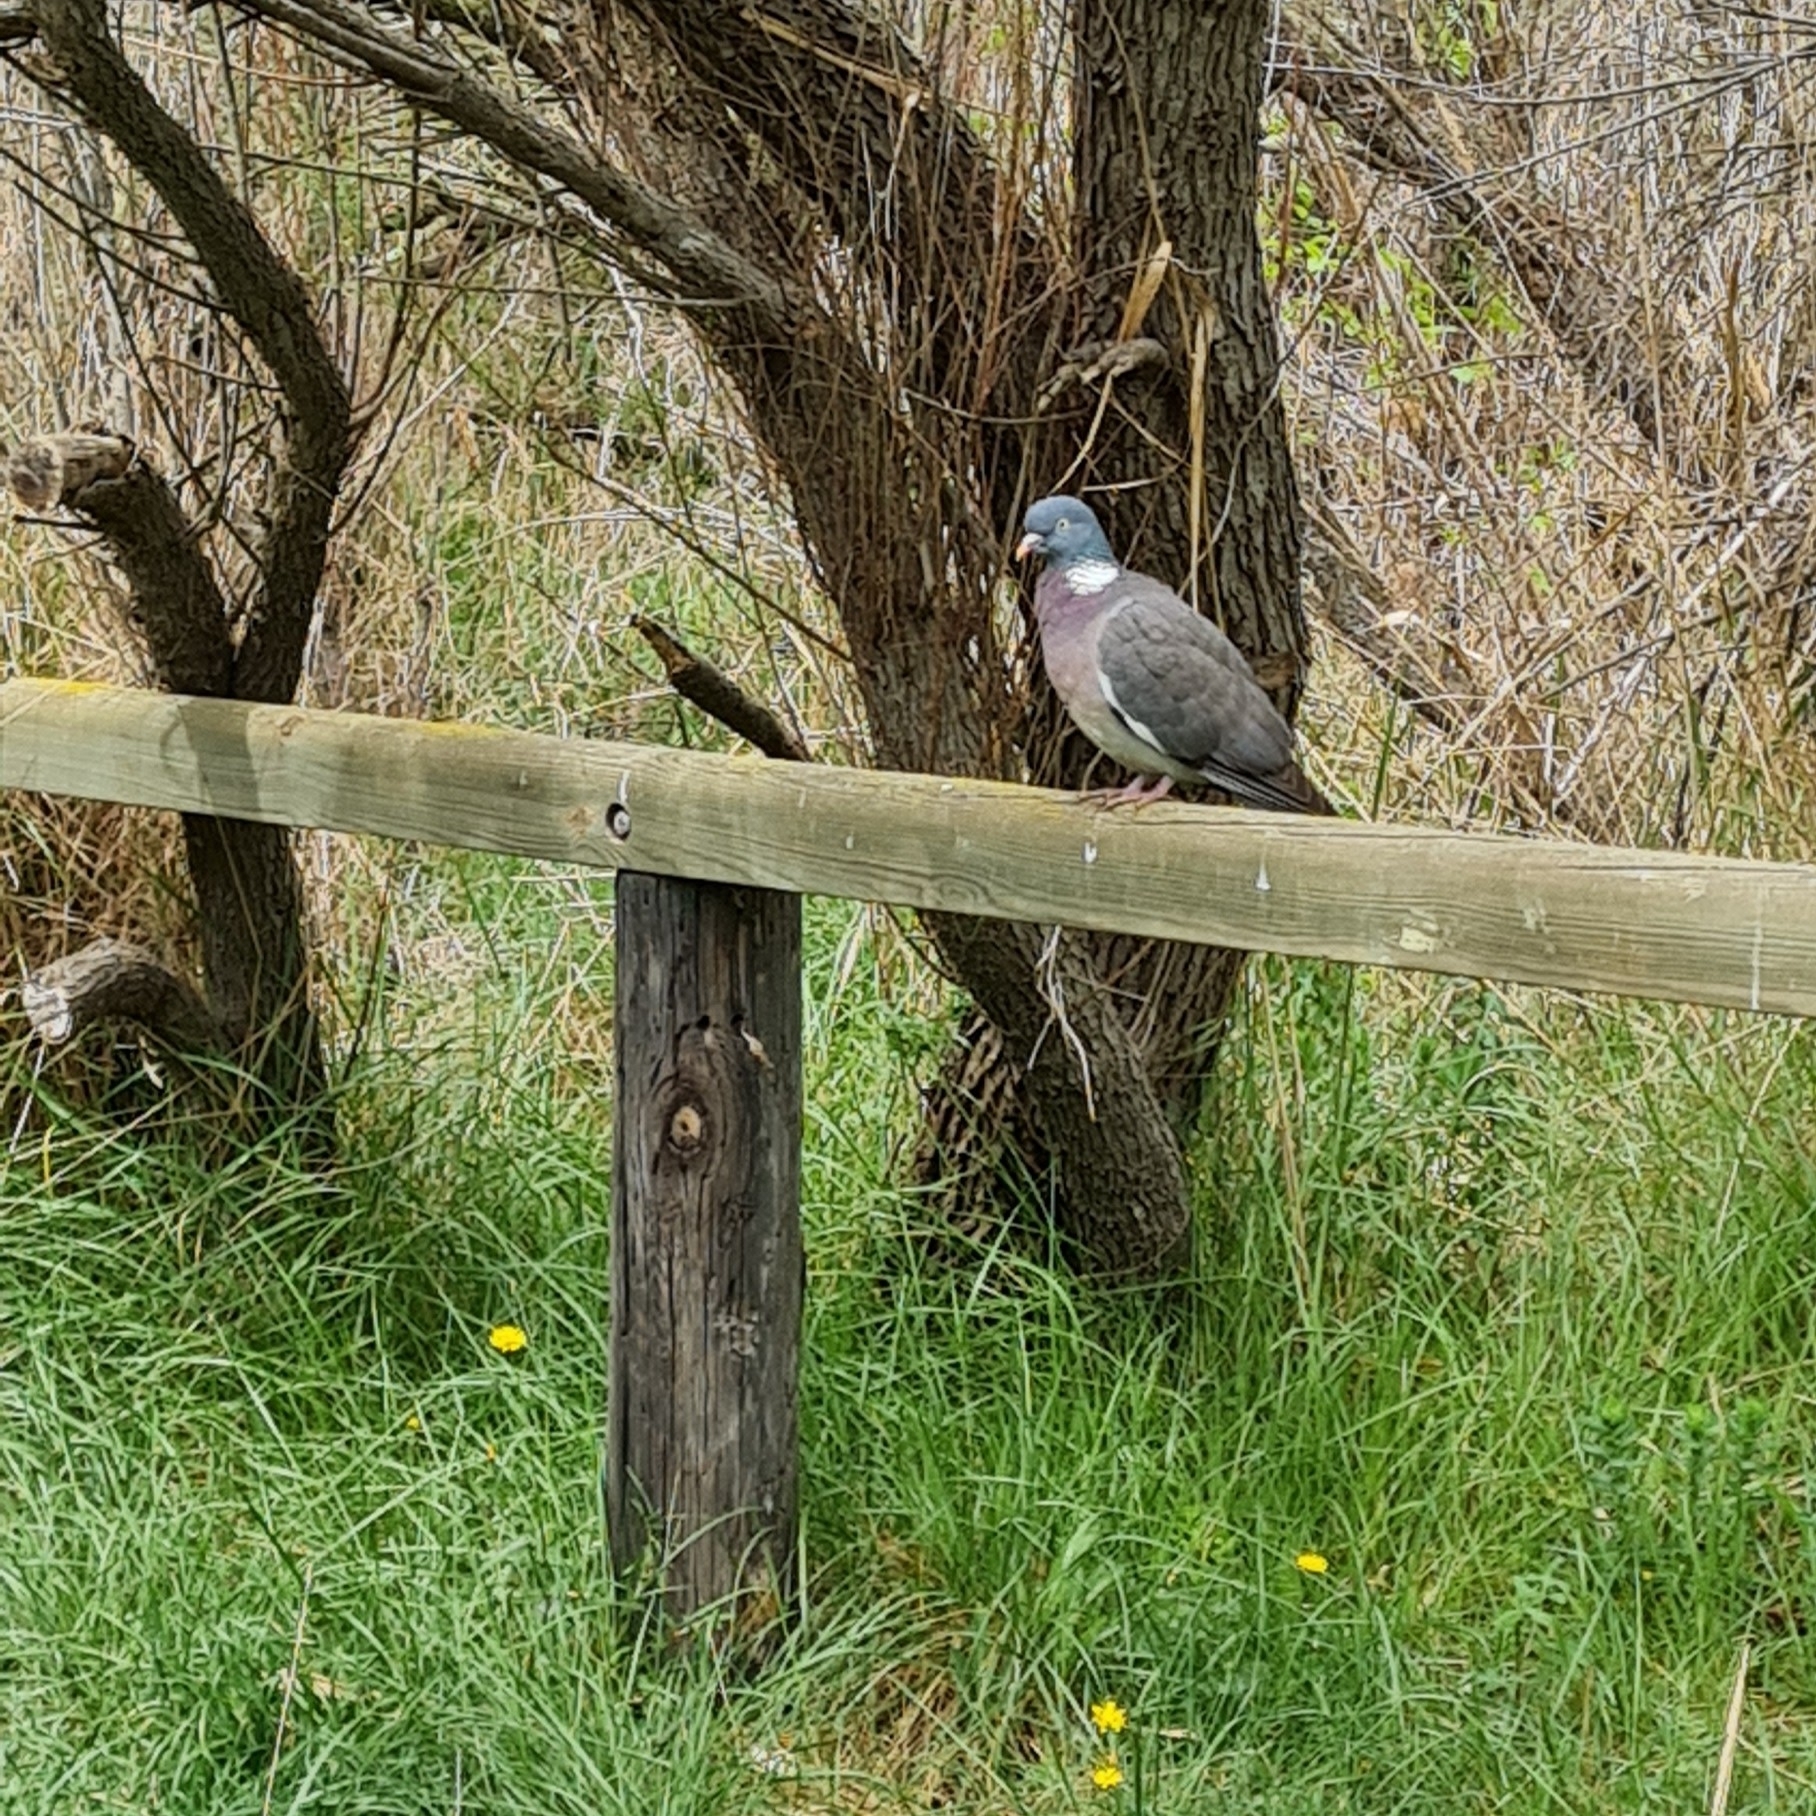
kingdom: Animalia
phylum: Chordata
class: Aves
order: Columbiformes
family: Columbidae
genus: Columba
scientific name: Columba palumbus
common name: Common wood pigeon
